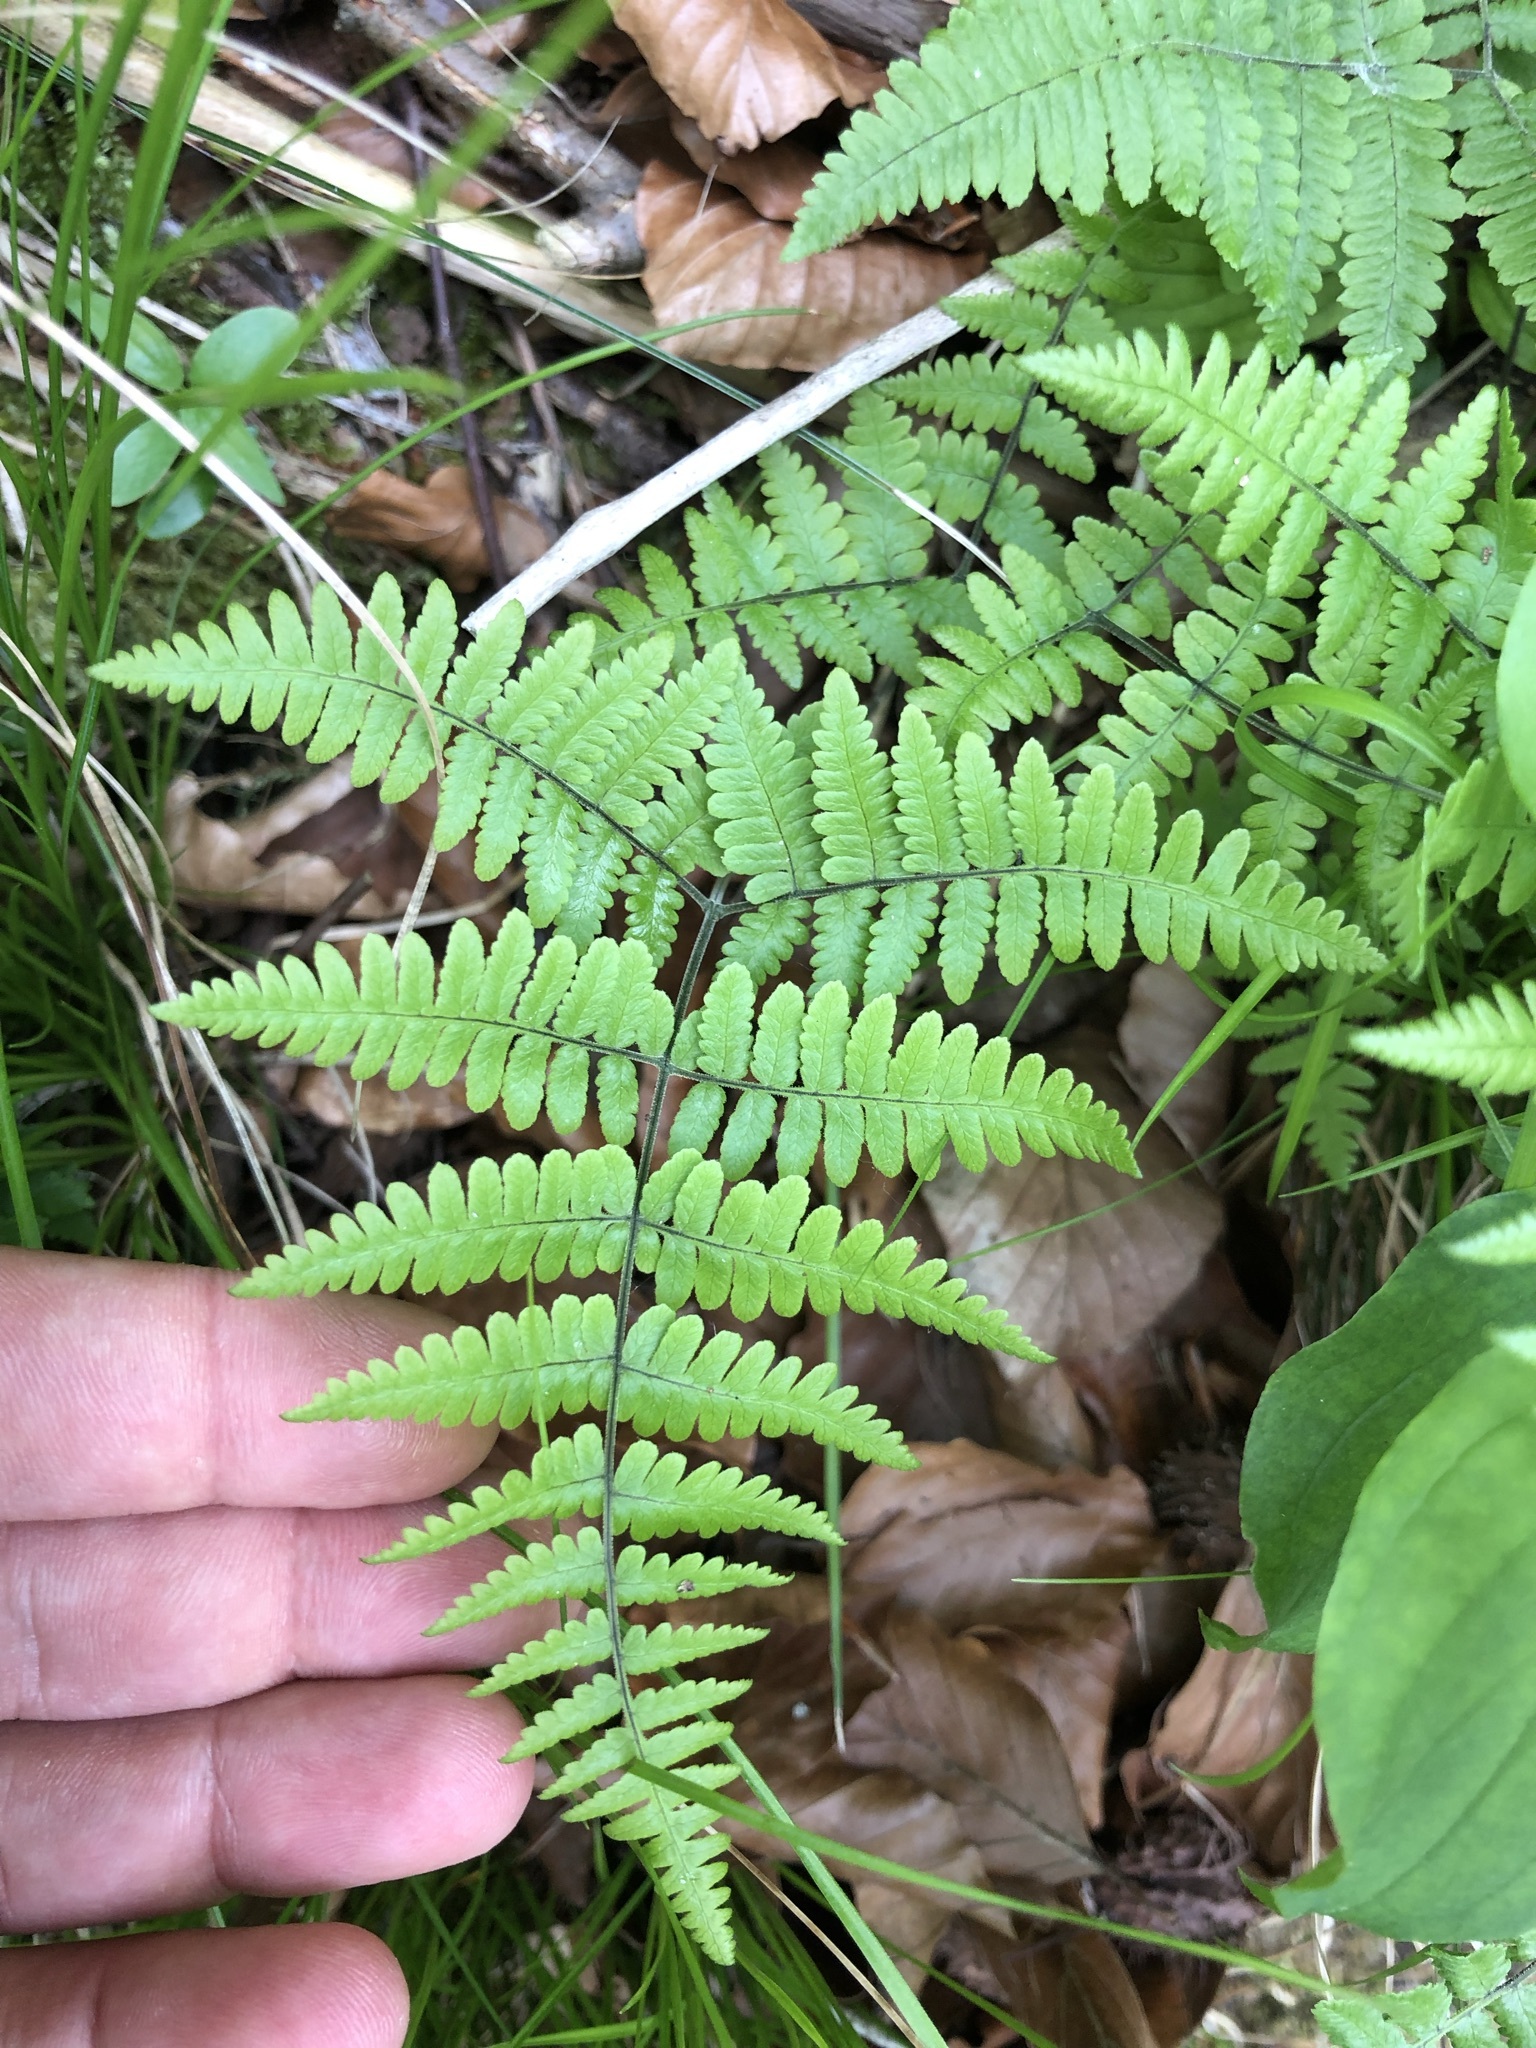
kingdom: Plantae
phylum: Tracheophyta
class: Polypodiopsida
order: Polypodiales
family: Cystopteridaceae
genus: Gymnocarpium
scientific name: Gymnocarpium robertianum
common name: Limestone fern
